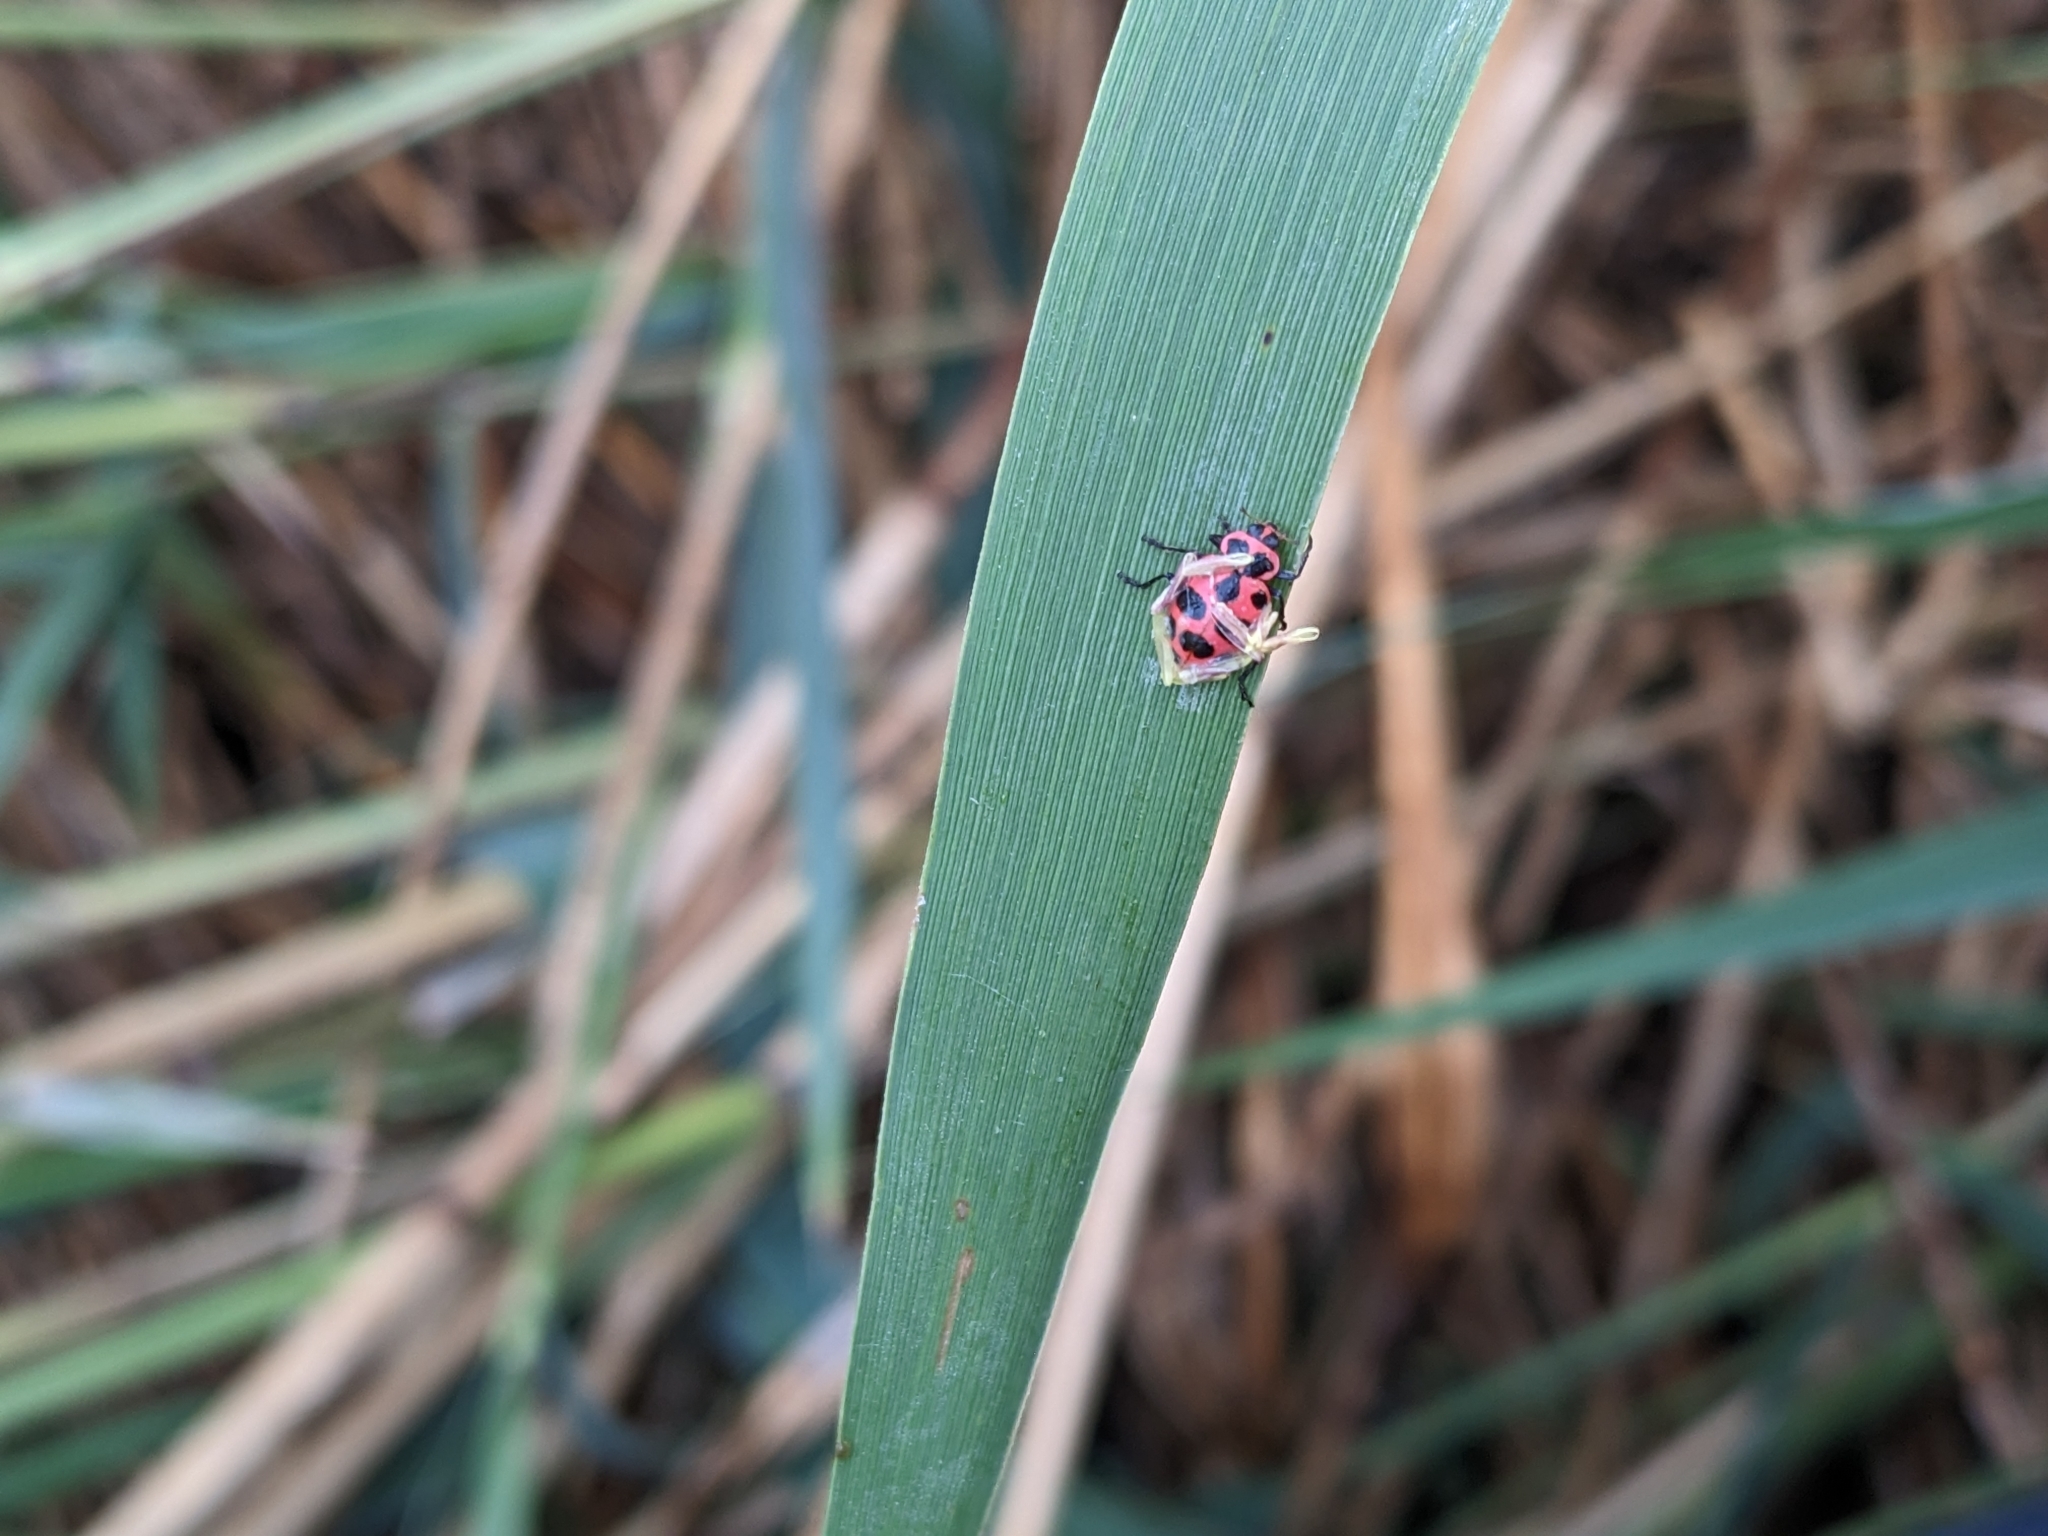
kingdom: Animalia
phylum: Arthropoda
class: Insecta
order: Coleoptera
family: Coccinellidae
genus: Coleomegilla
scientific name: Coleomegilla maculata
